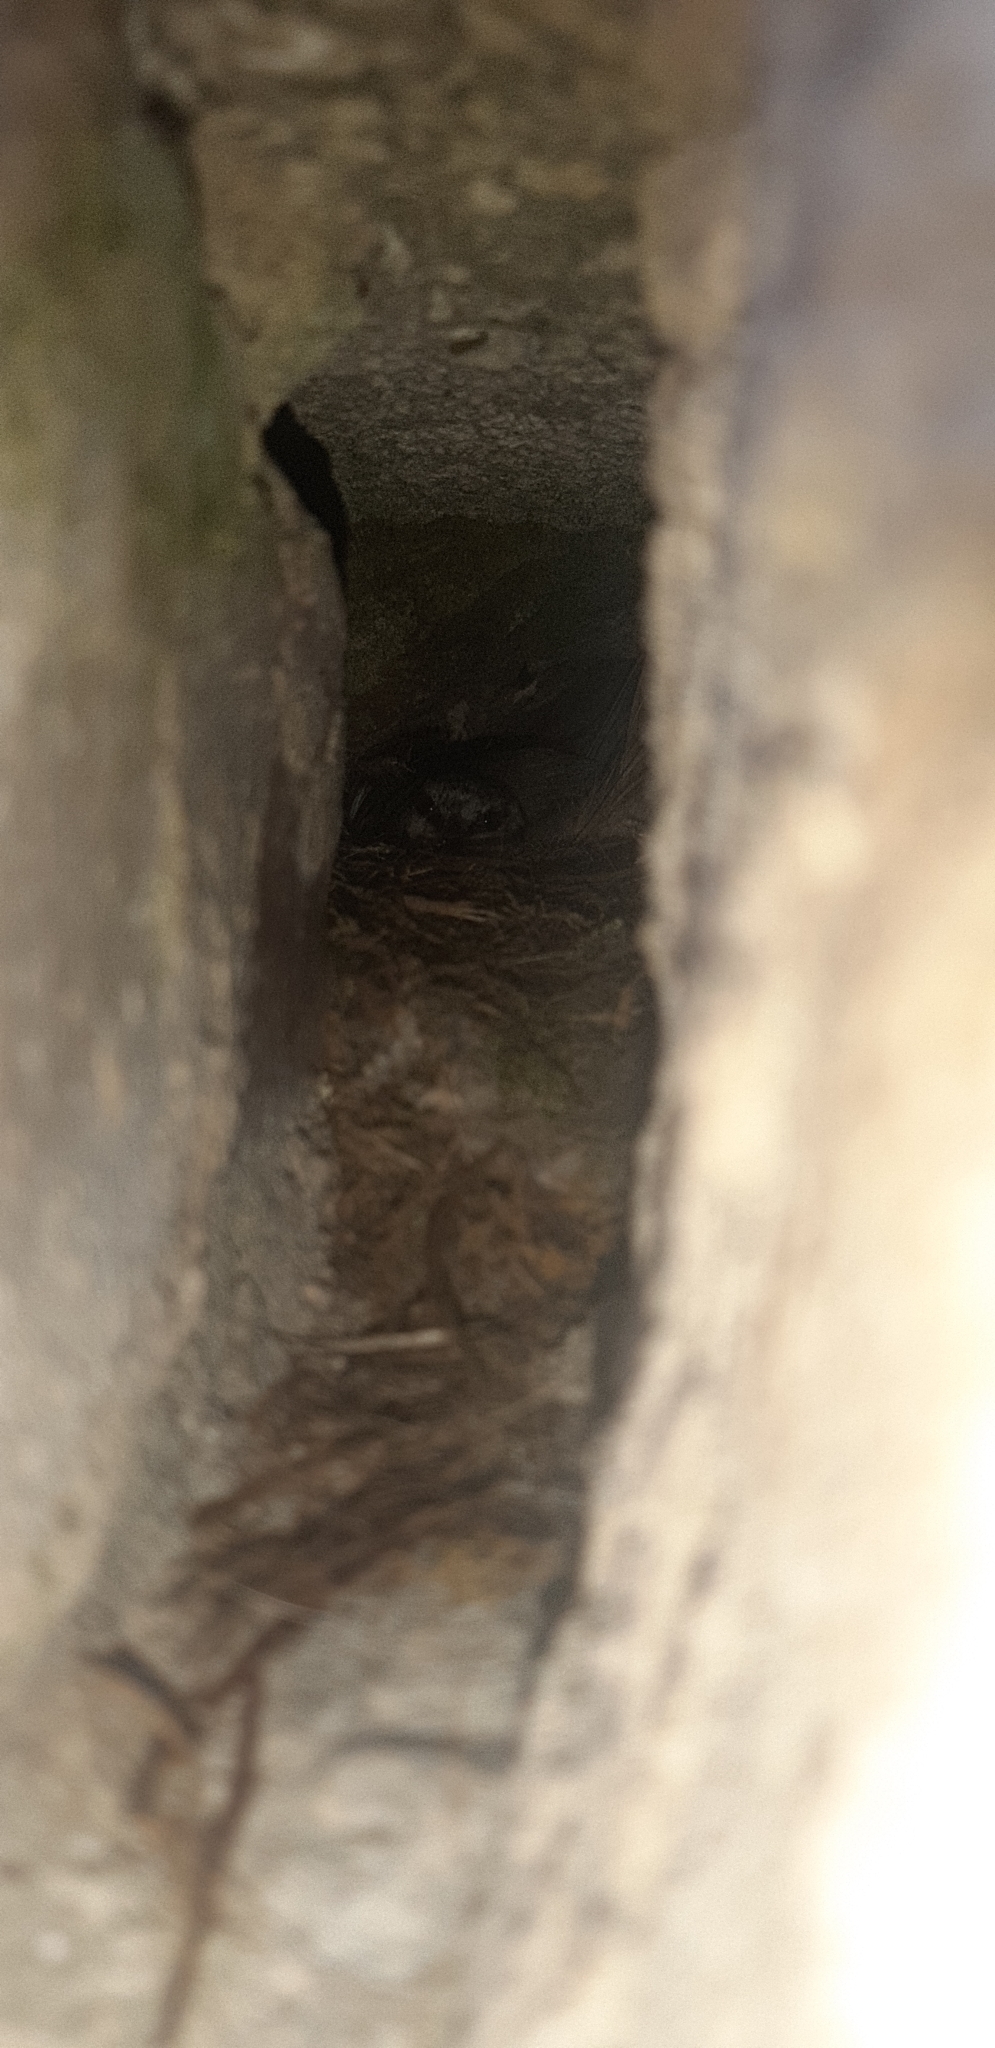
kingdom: Animalia
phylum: Chordata
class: Aves
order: Passeriformes
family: Paridae
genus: Cyanistes
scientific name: Cyanistes caeruleus
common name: Eurasian blue tit
